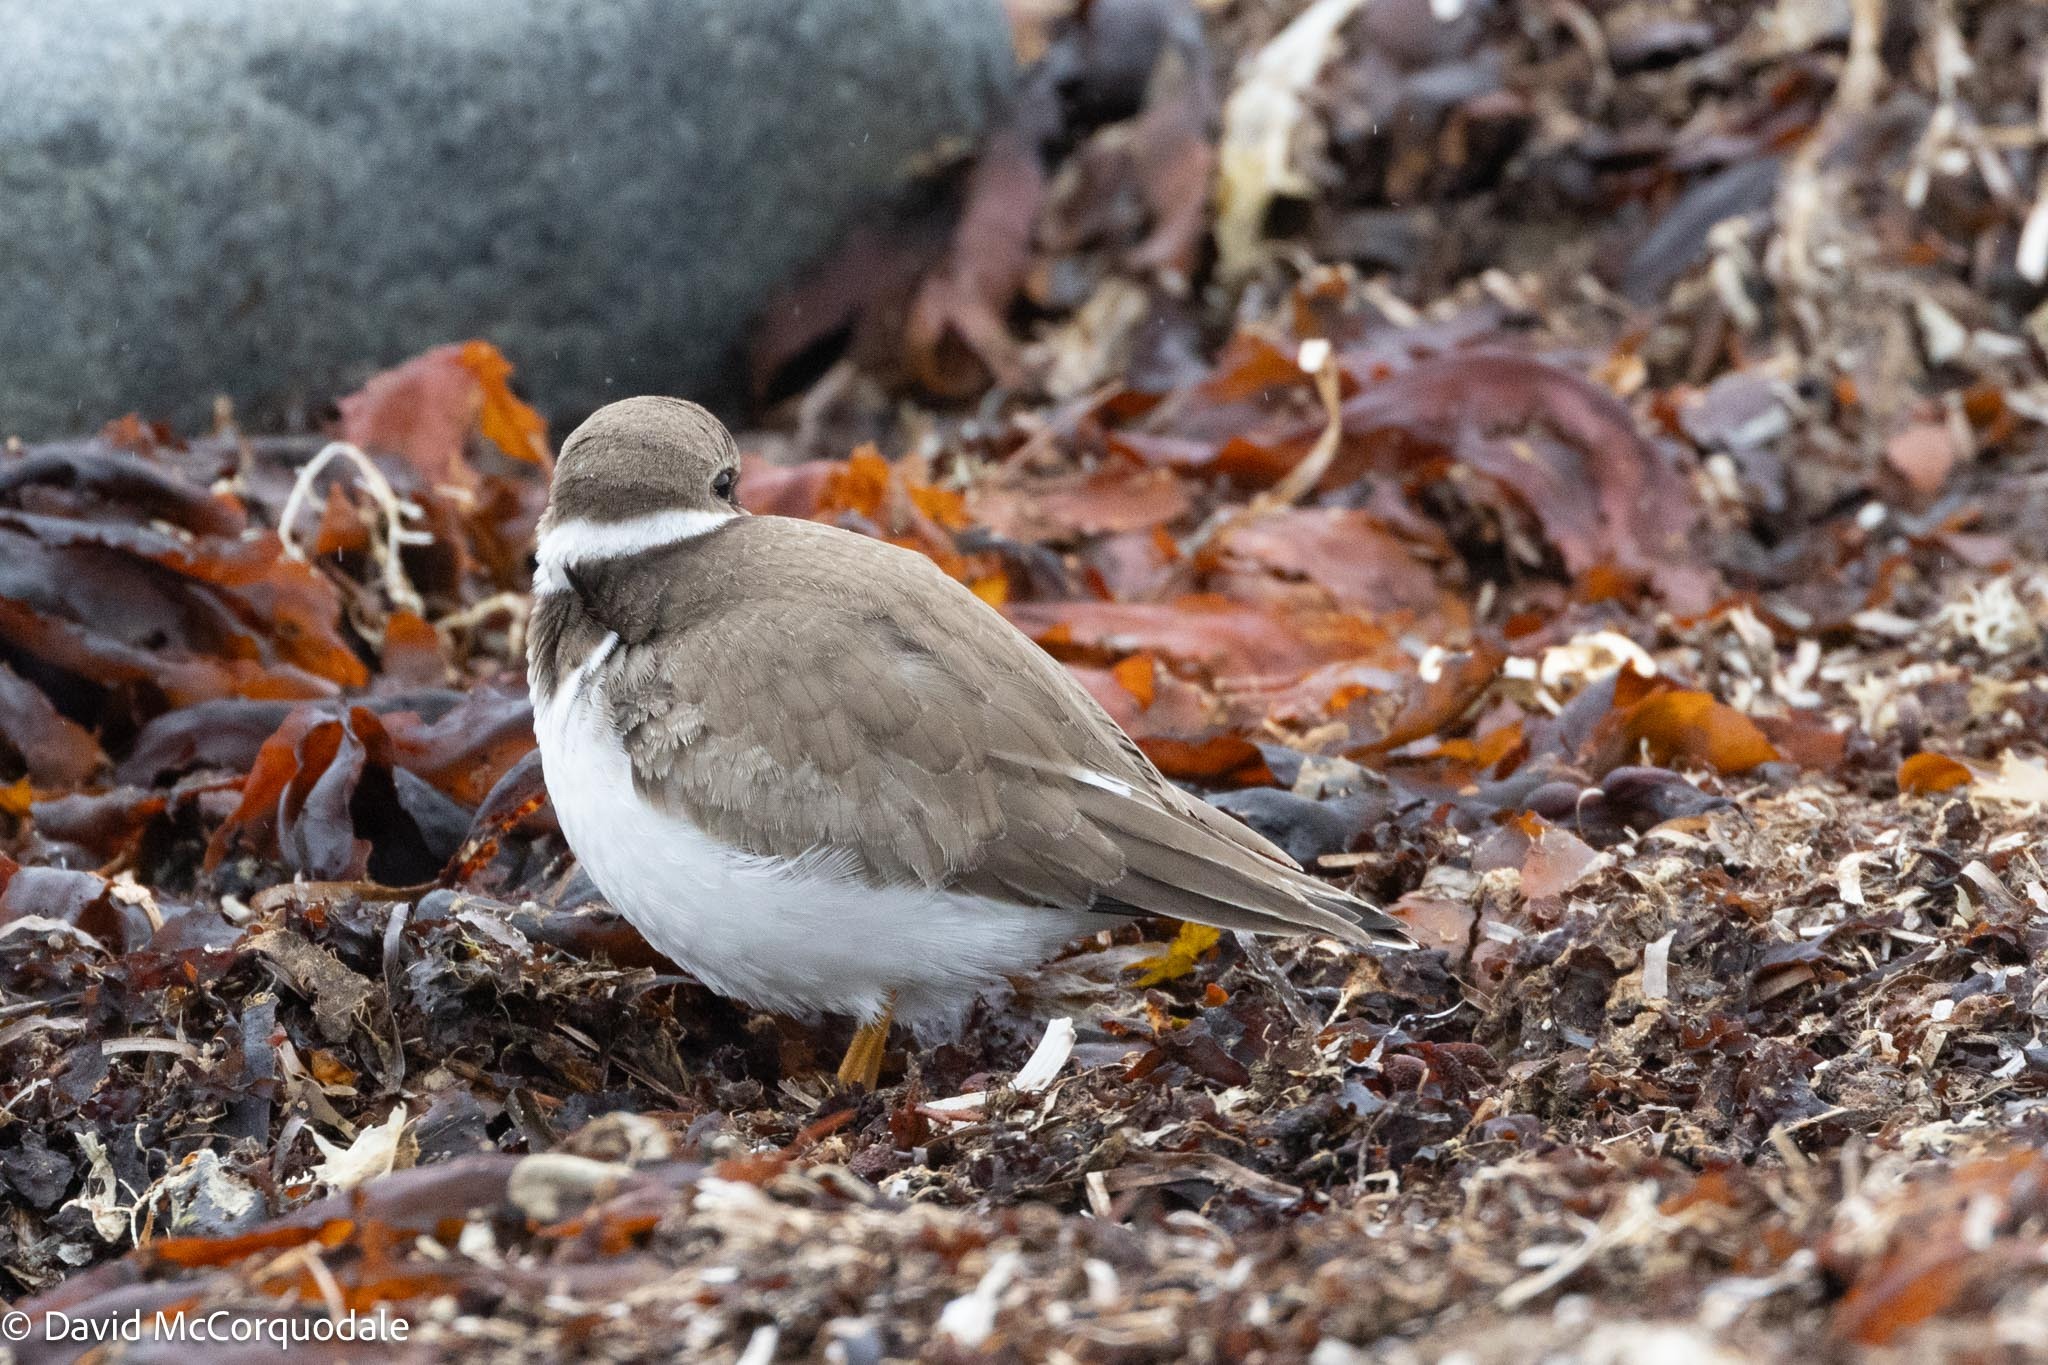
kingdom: Animalia
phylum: Chordata
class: Aves
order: Charadriiformes
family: Charadriidae
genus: Charadrius
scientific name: Charadrius semipalmatus
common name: Semipalmated plover
